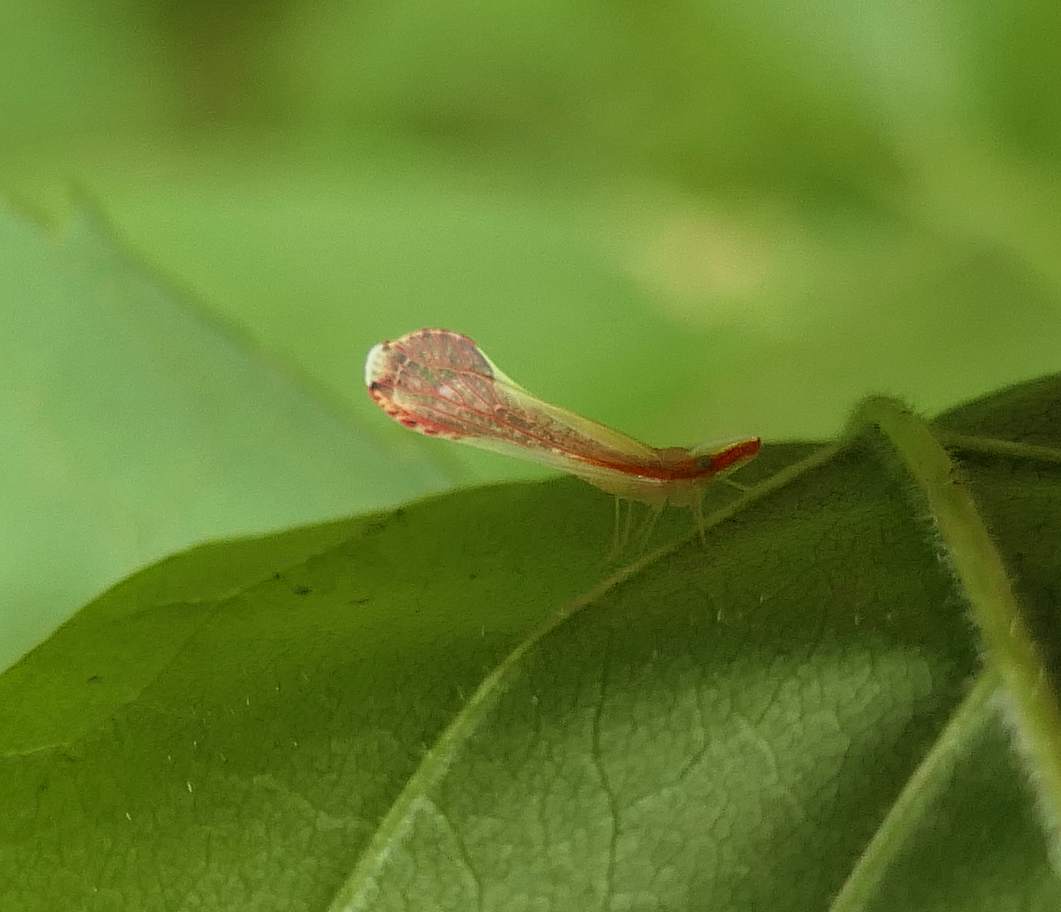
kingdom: Animalia
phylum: Arthropoda
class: Insecta
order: Hemiptera
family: Derbidae
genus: Shellenius
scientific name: Shellenius ballii
